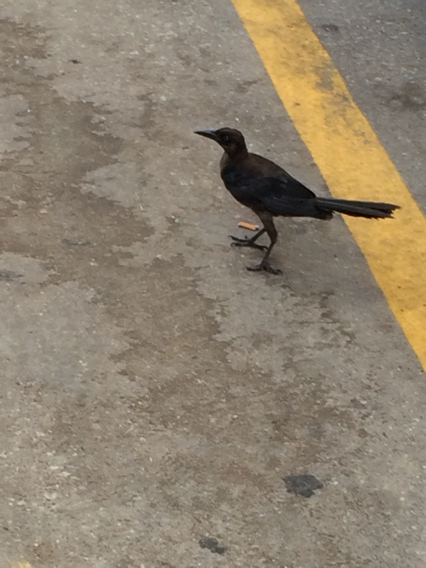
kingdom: Animalia
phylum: Chordata
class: Aves
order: Passeriformes
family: Icteridae
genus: Quiscalus
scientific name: Quiscalus mexicanus
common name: Great-tailed grackle
